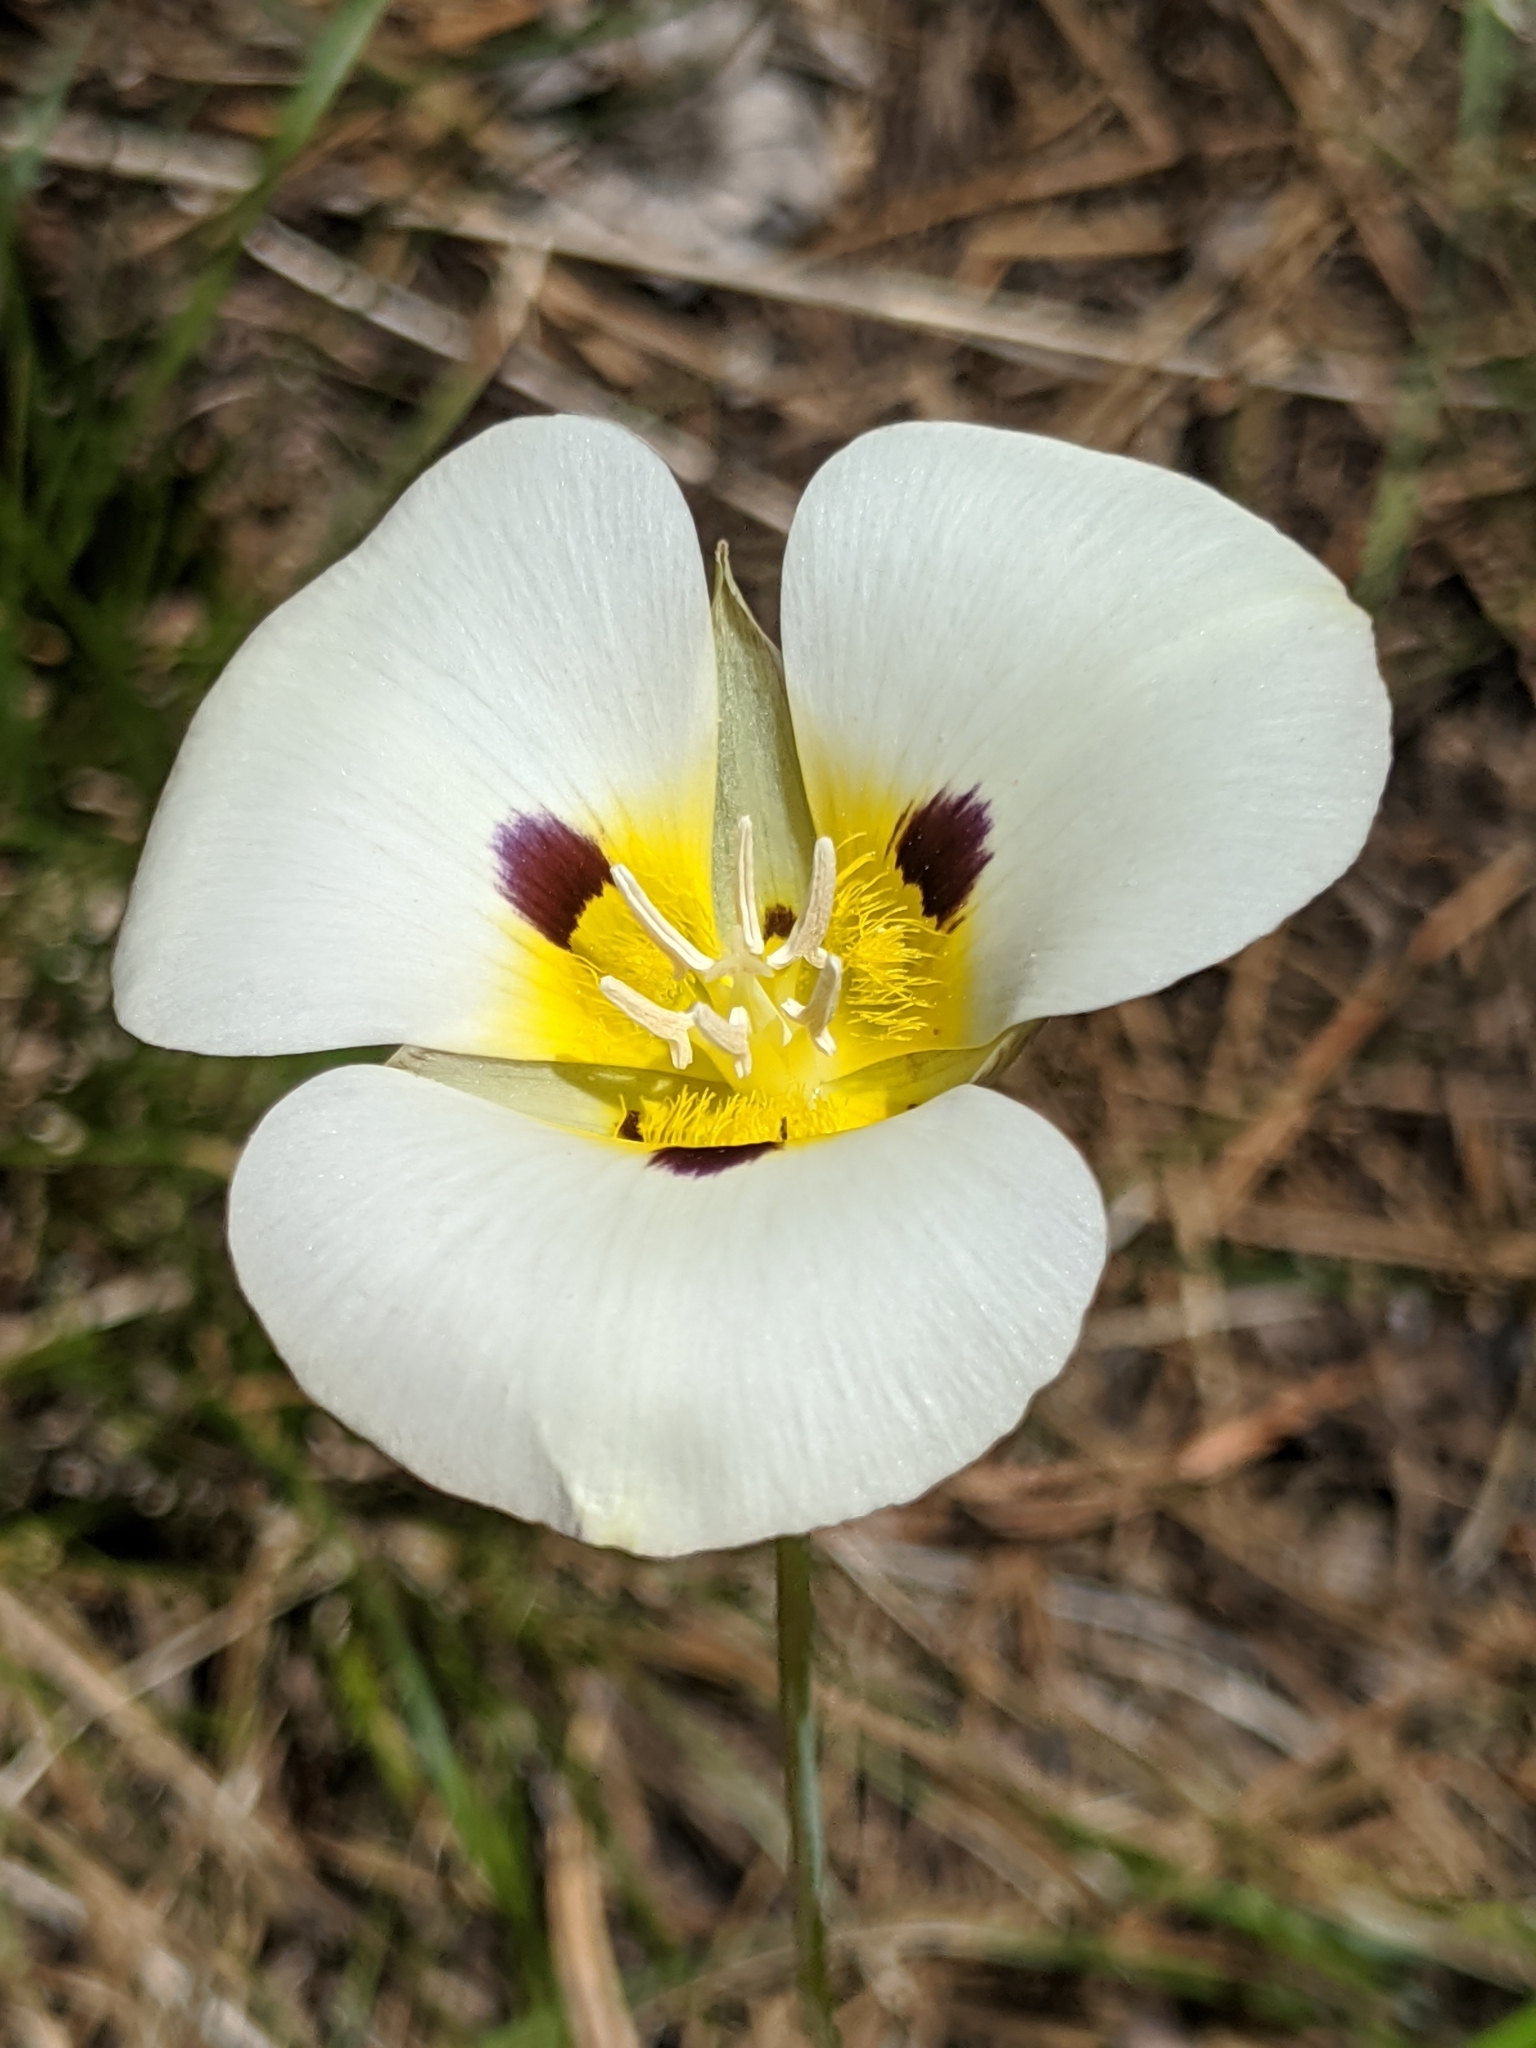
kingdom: Plantae
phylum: Tracheophyta
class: Liliopsida
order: Liliales
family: Liliaceae
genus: Calochortus
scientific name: Calochortus leichtlinii
